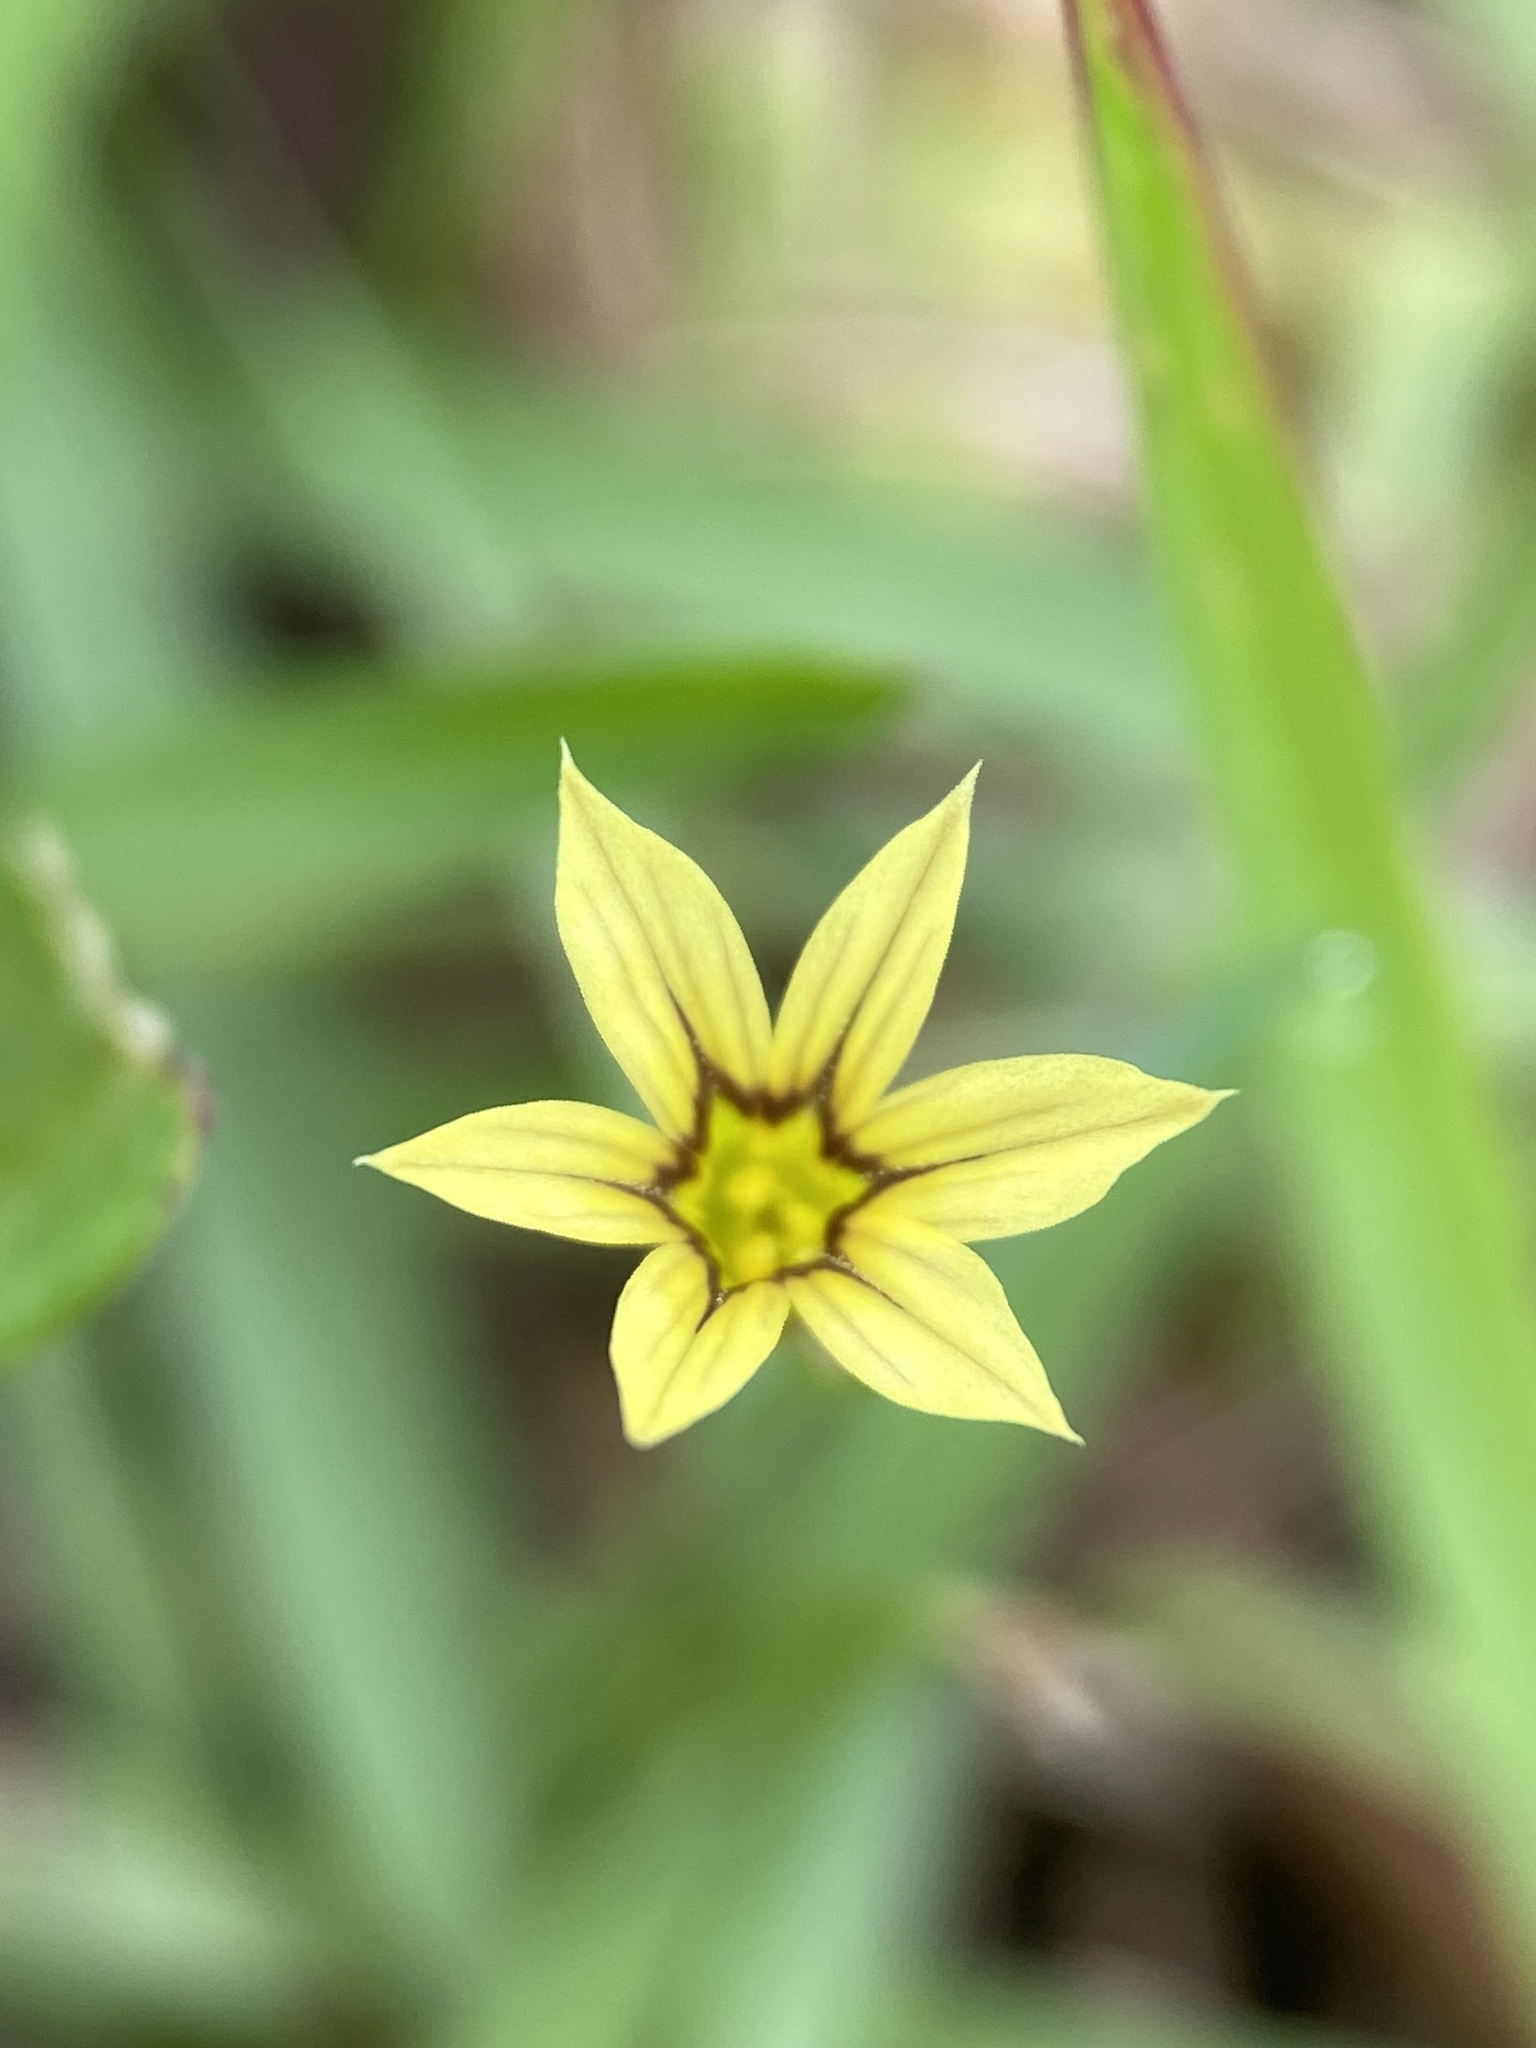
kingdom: Plantae
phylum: Tracheophyta
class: Liliopsida
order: Asparagales
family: Iridaceae
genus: Sisyrinchium
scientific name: Sisyrinchium micranthum
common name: Bermuda pigroot
